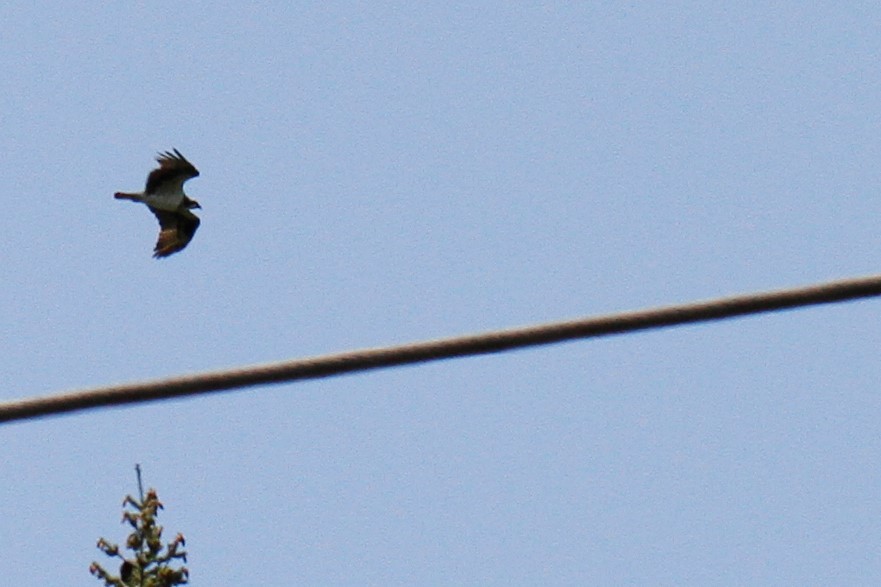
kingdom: Animalia
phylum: Chordata
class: Aves
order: Accipitriformes
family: Pandionidae
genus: Pandion
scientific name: Pandion haliaetus
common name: Osprey
